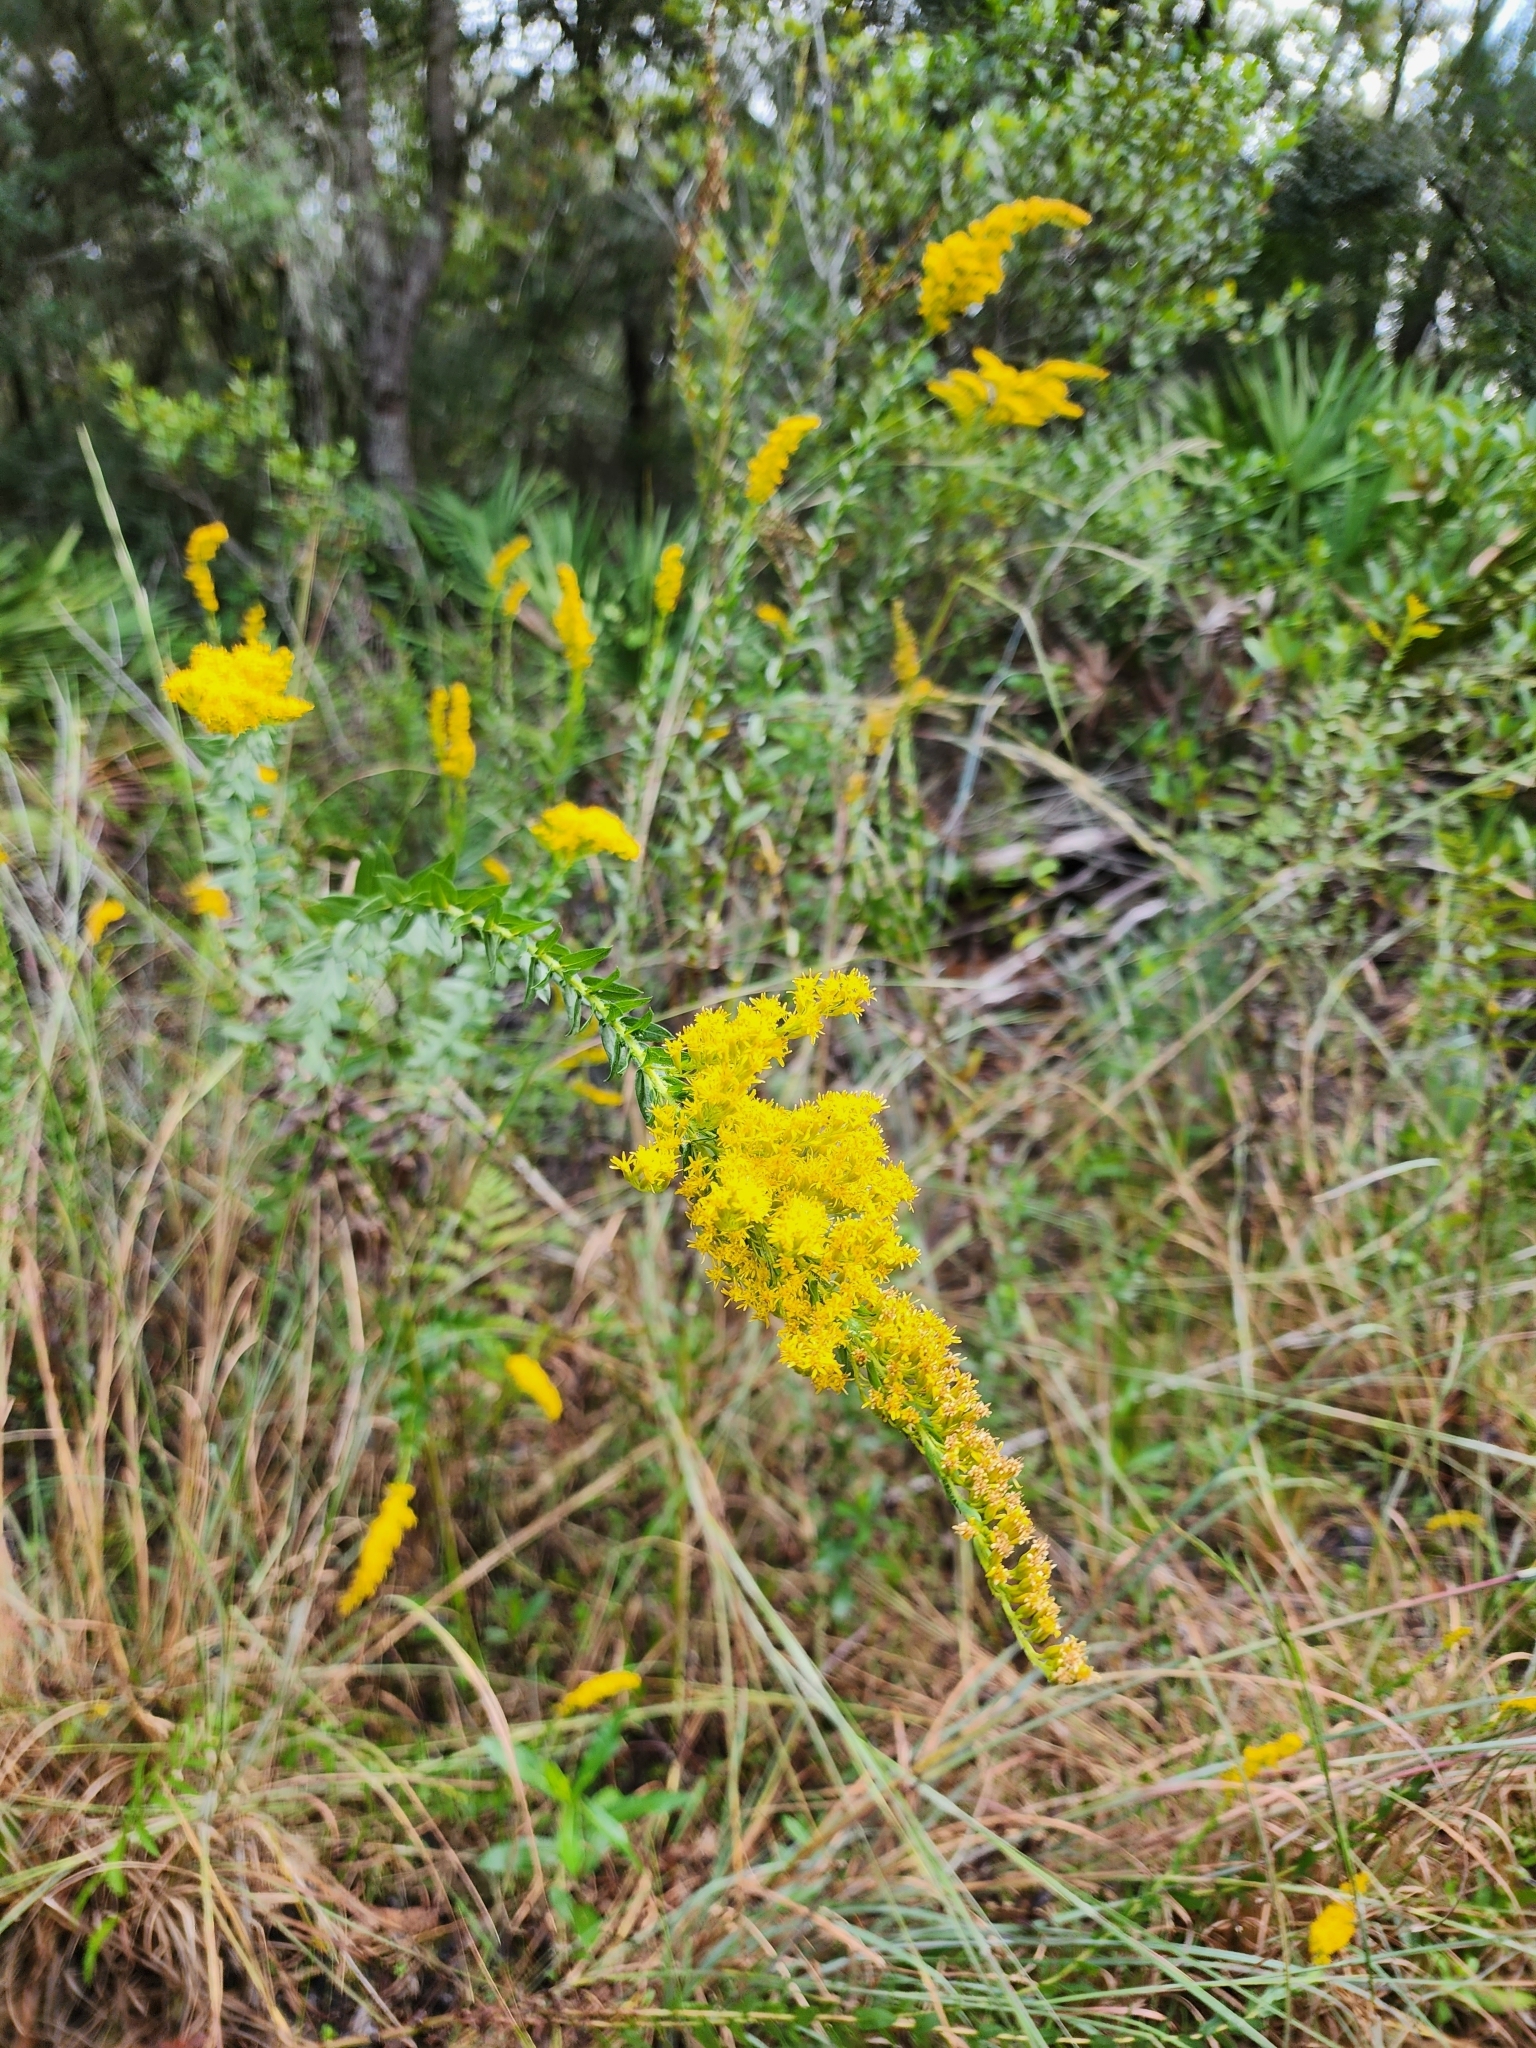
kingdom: Plantae
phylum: Tracheophyta
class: Magnoliopsida
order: Asterales
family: Asteraceae
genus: Solidago
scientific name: Solidago fistulosa
